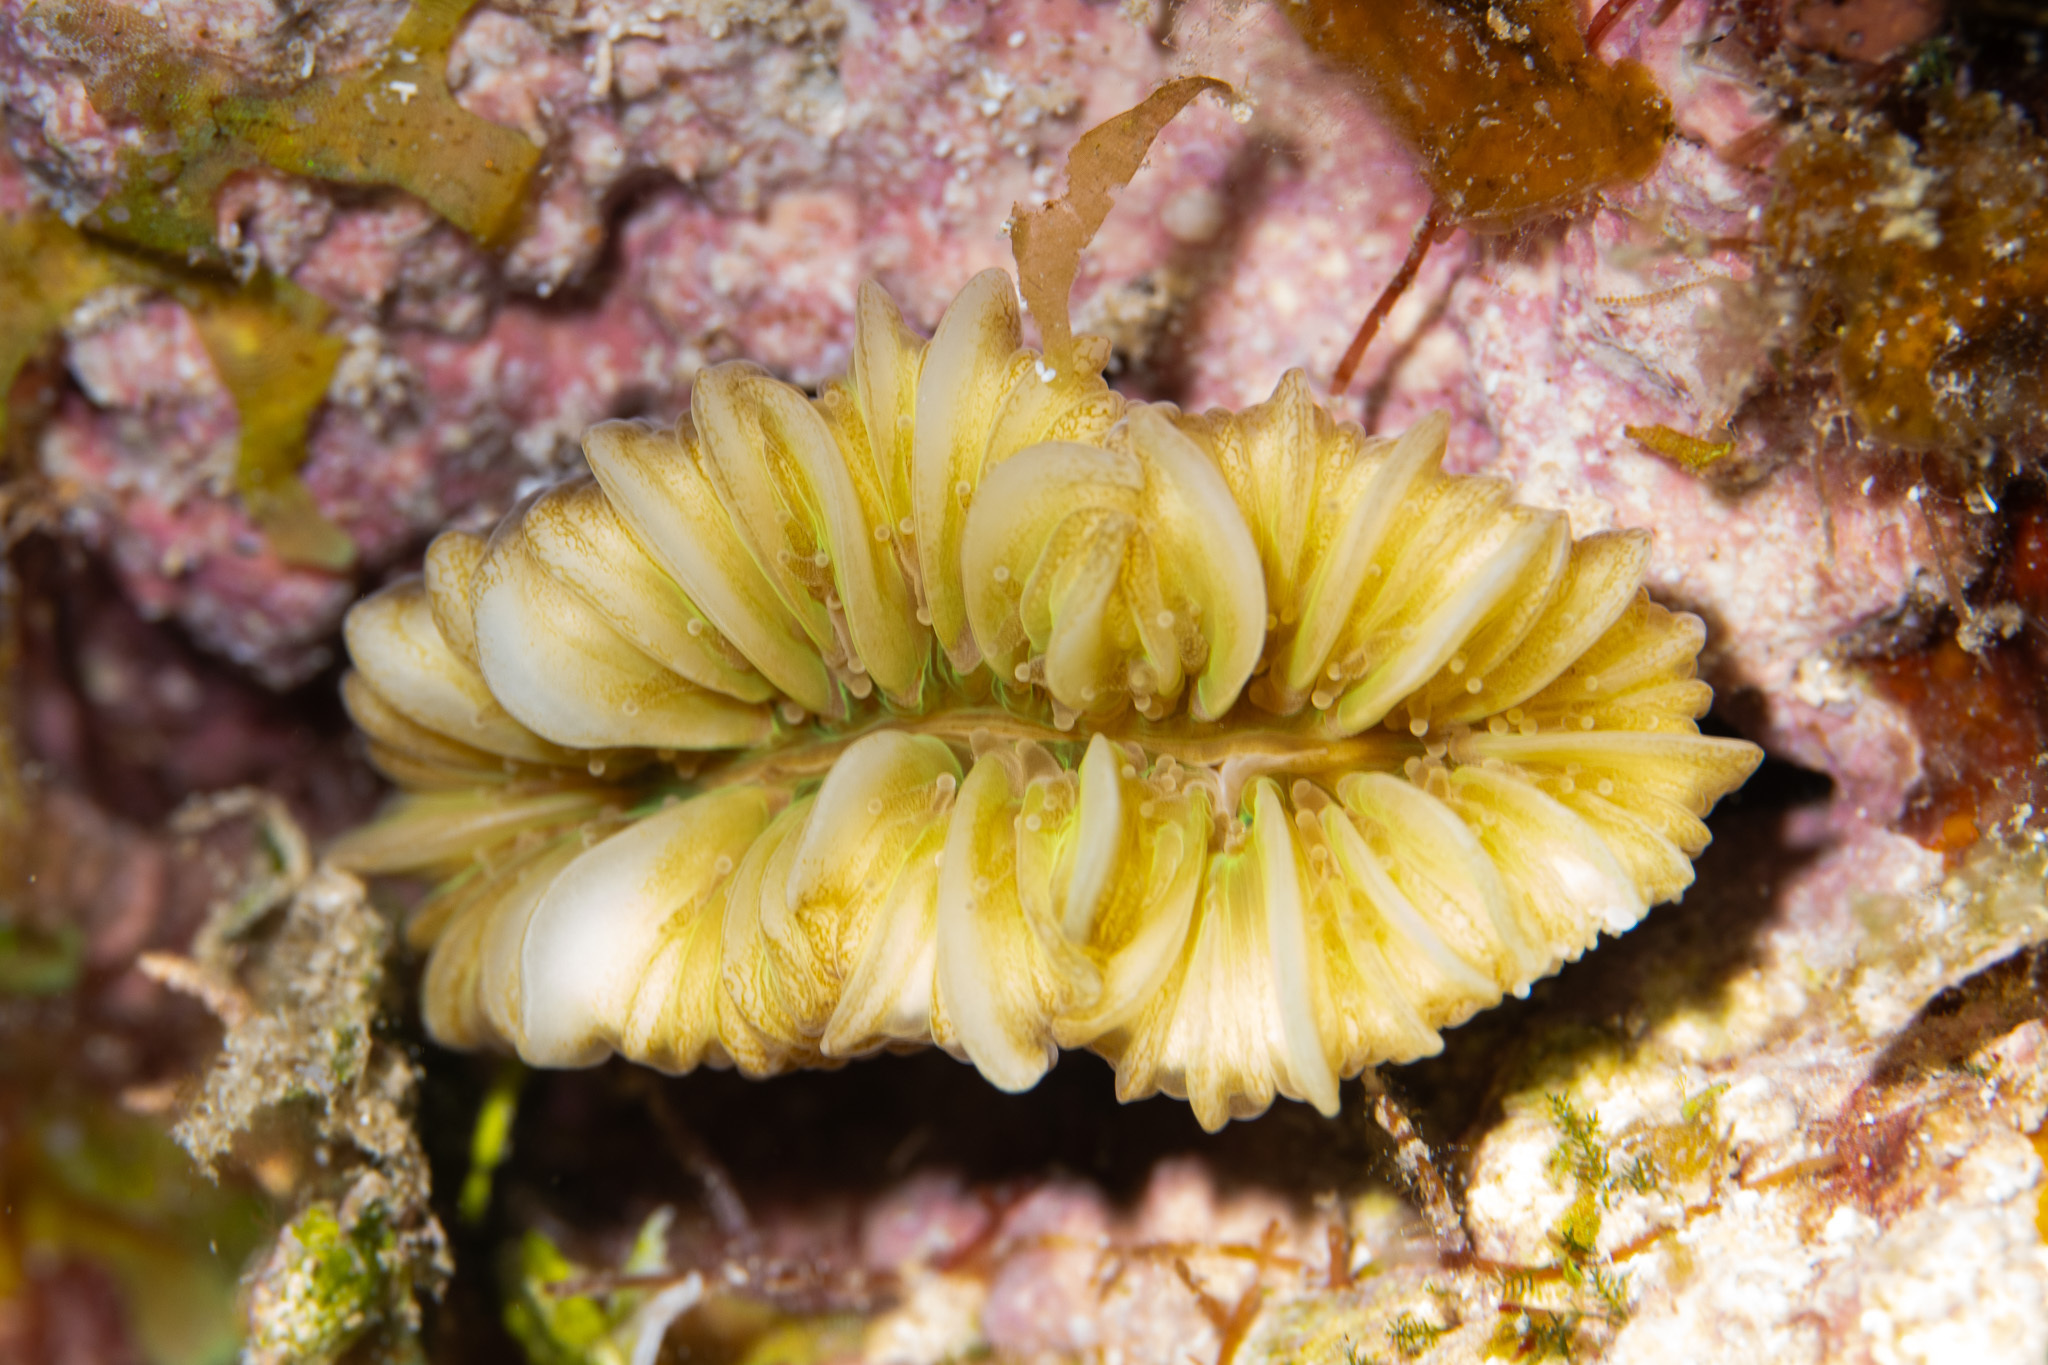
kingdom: Animalia
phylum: Cnidaria
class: Anthozoa
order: Scleractinia
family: Meandrinidae
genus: Eusmilia
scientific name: Eusmilia fastigiata
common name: Smooth flower coral
